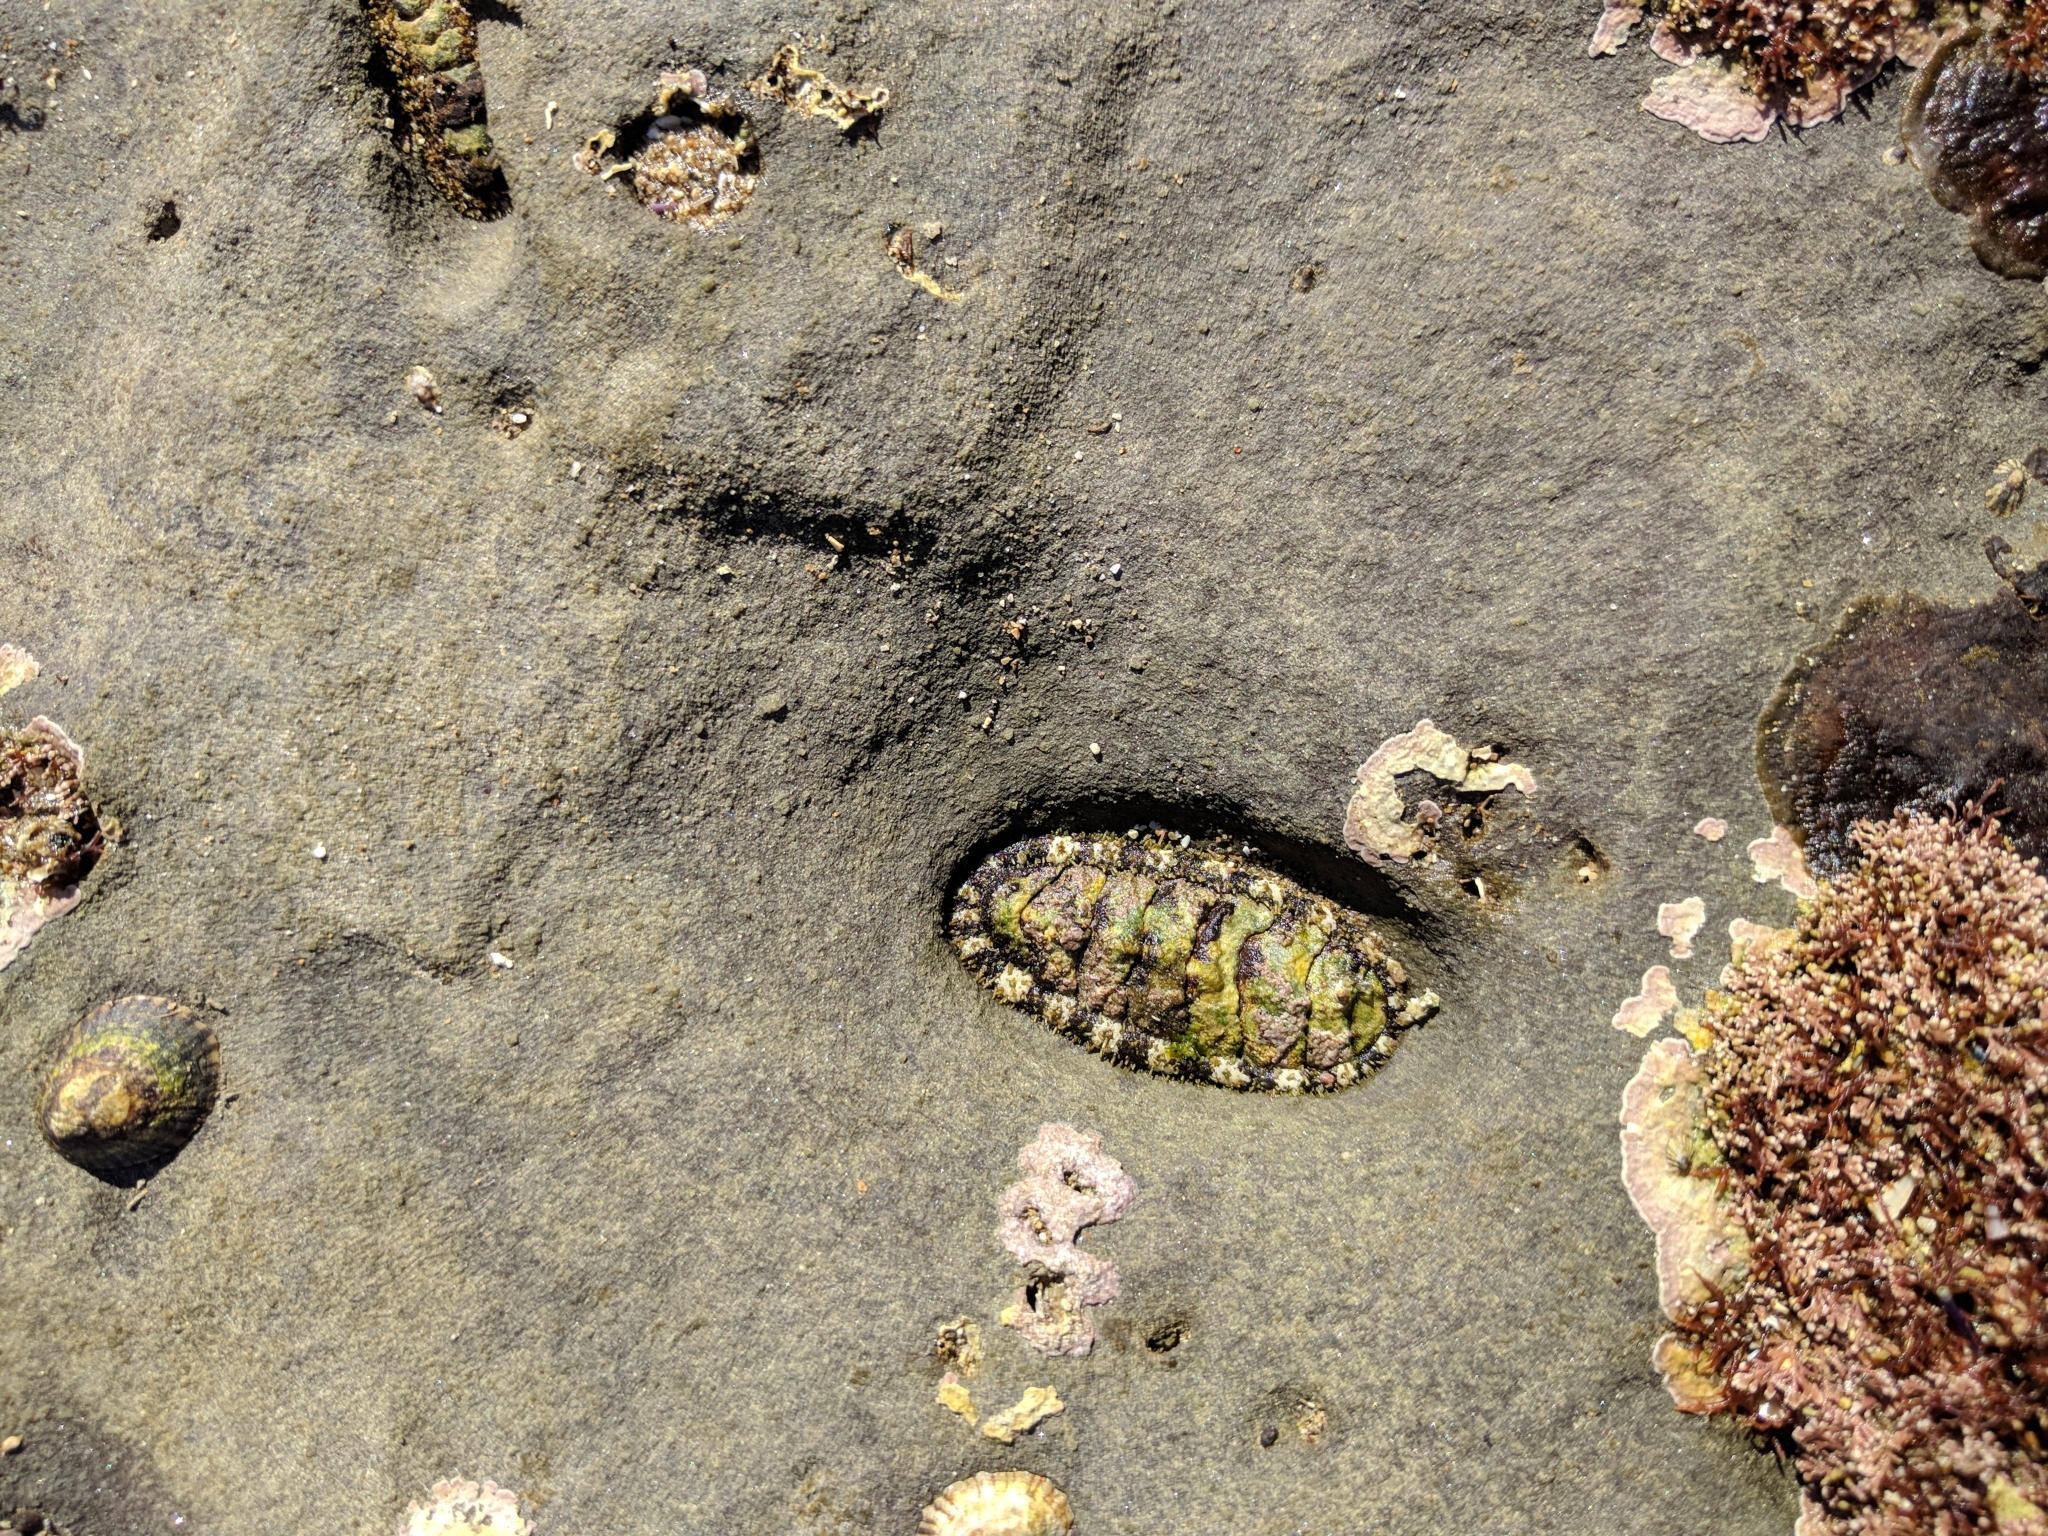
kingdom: Animalia
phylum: Mollusca
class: Polyplacophora
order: Chitonida
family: Tonicellidae
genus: Nuttallina
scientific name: Nuttallina californica
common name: California nuttall chiton
